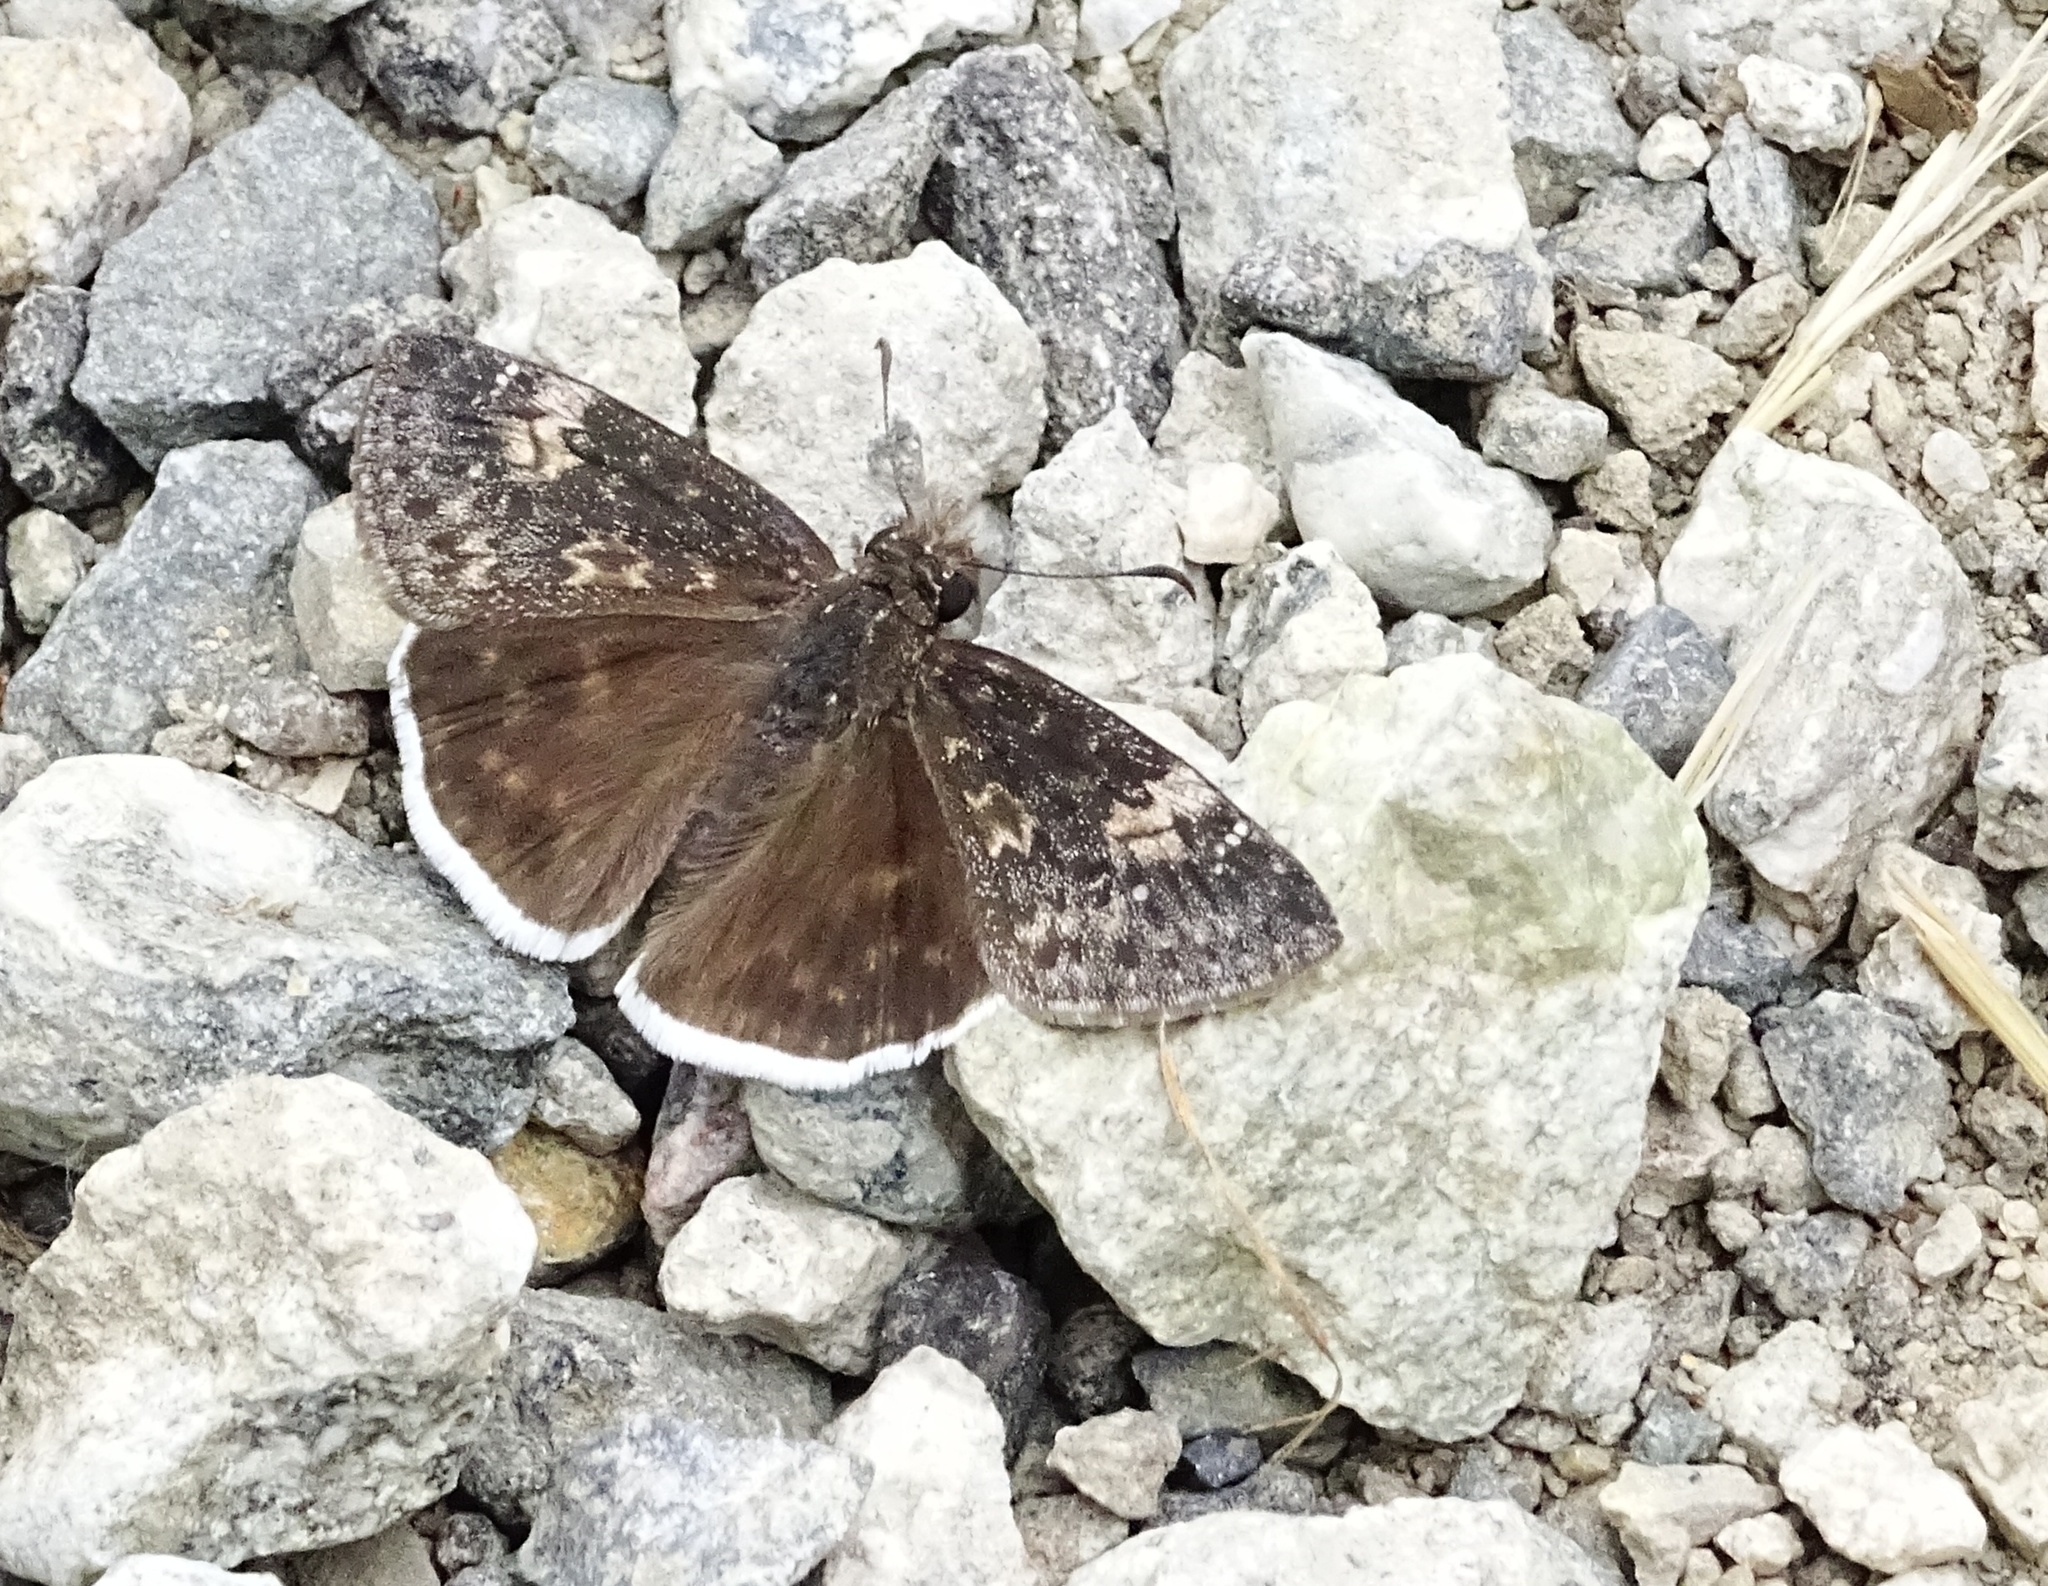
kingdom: Animalia
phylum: Arthropoda
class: Insecta
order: Lepidoptera
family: Hesperiidae
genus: Erynnis
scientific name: Erynnis funeralis
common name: Funereal duskywing
